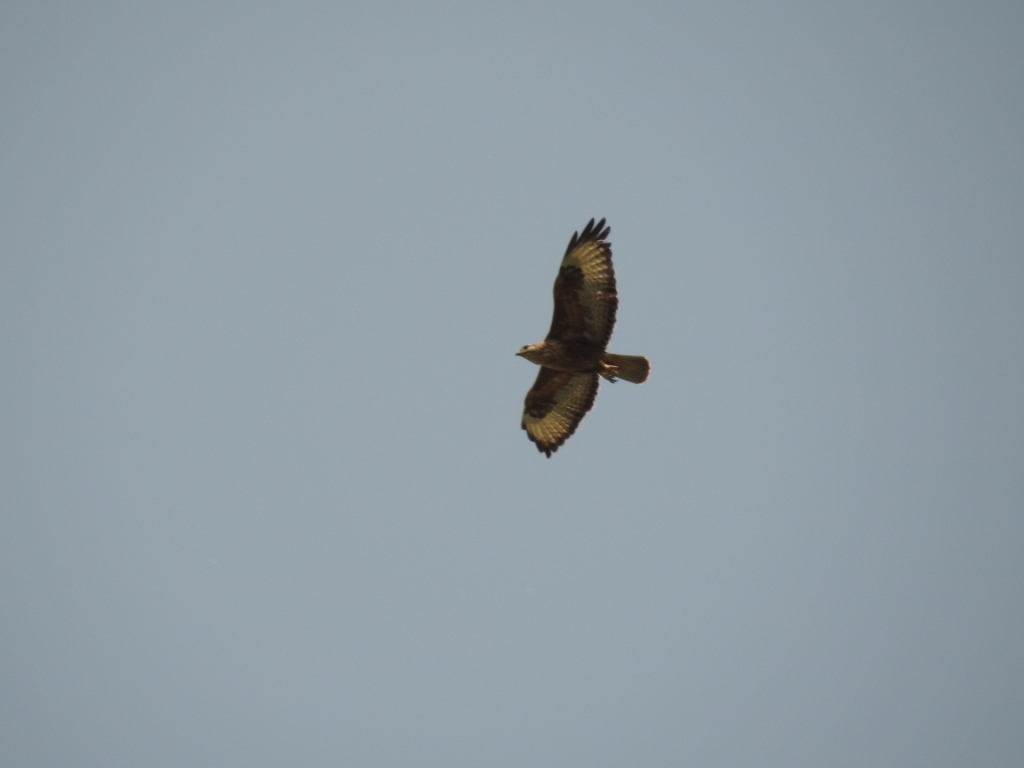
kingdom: Animalia
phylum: Chordata
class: Aves
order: Accipitriformes
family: Accipitridae
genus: Buteo
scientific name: Buteo rufinus
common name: Long-legged buzzard
